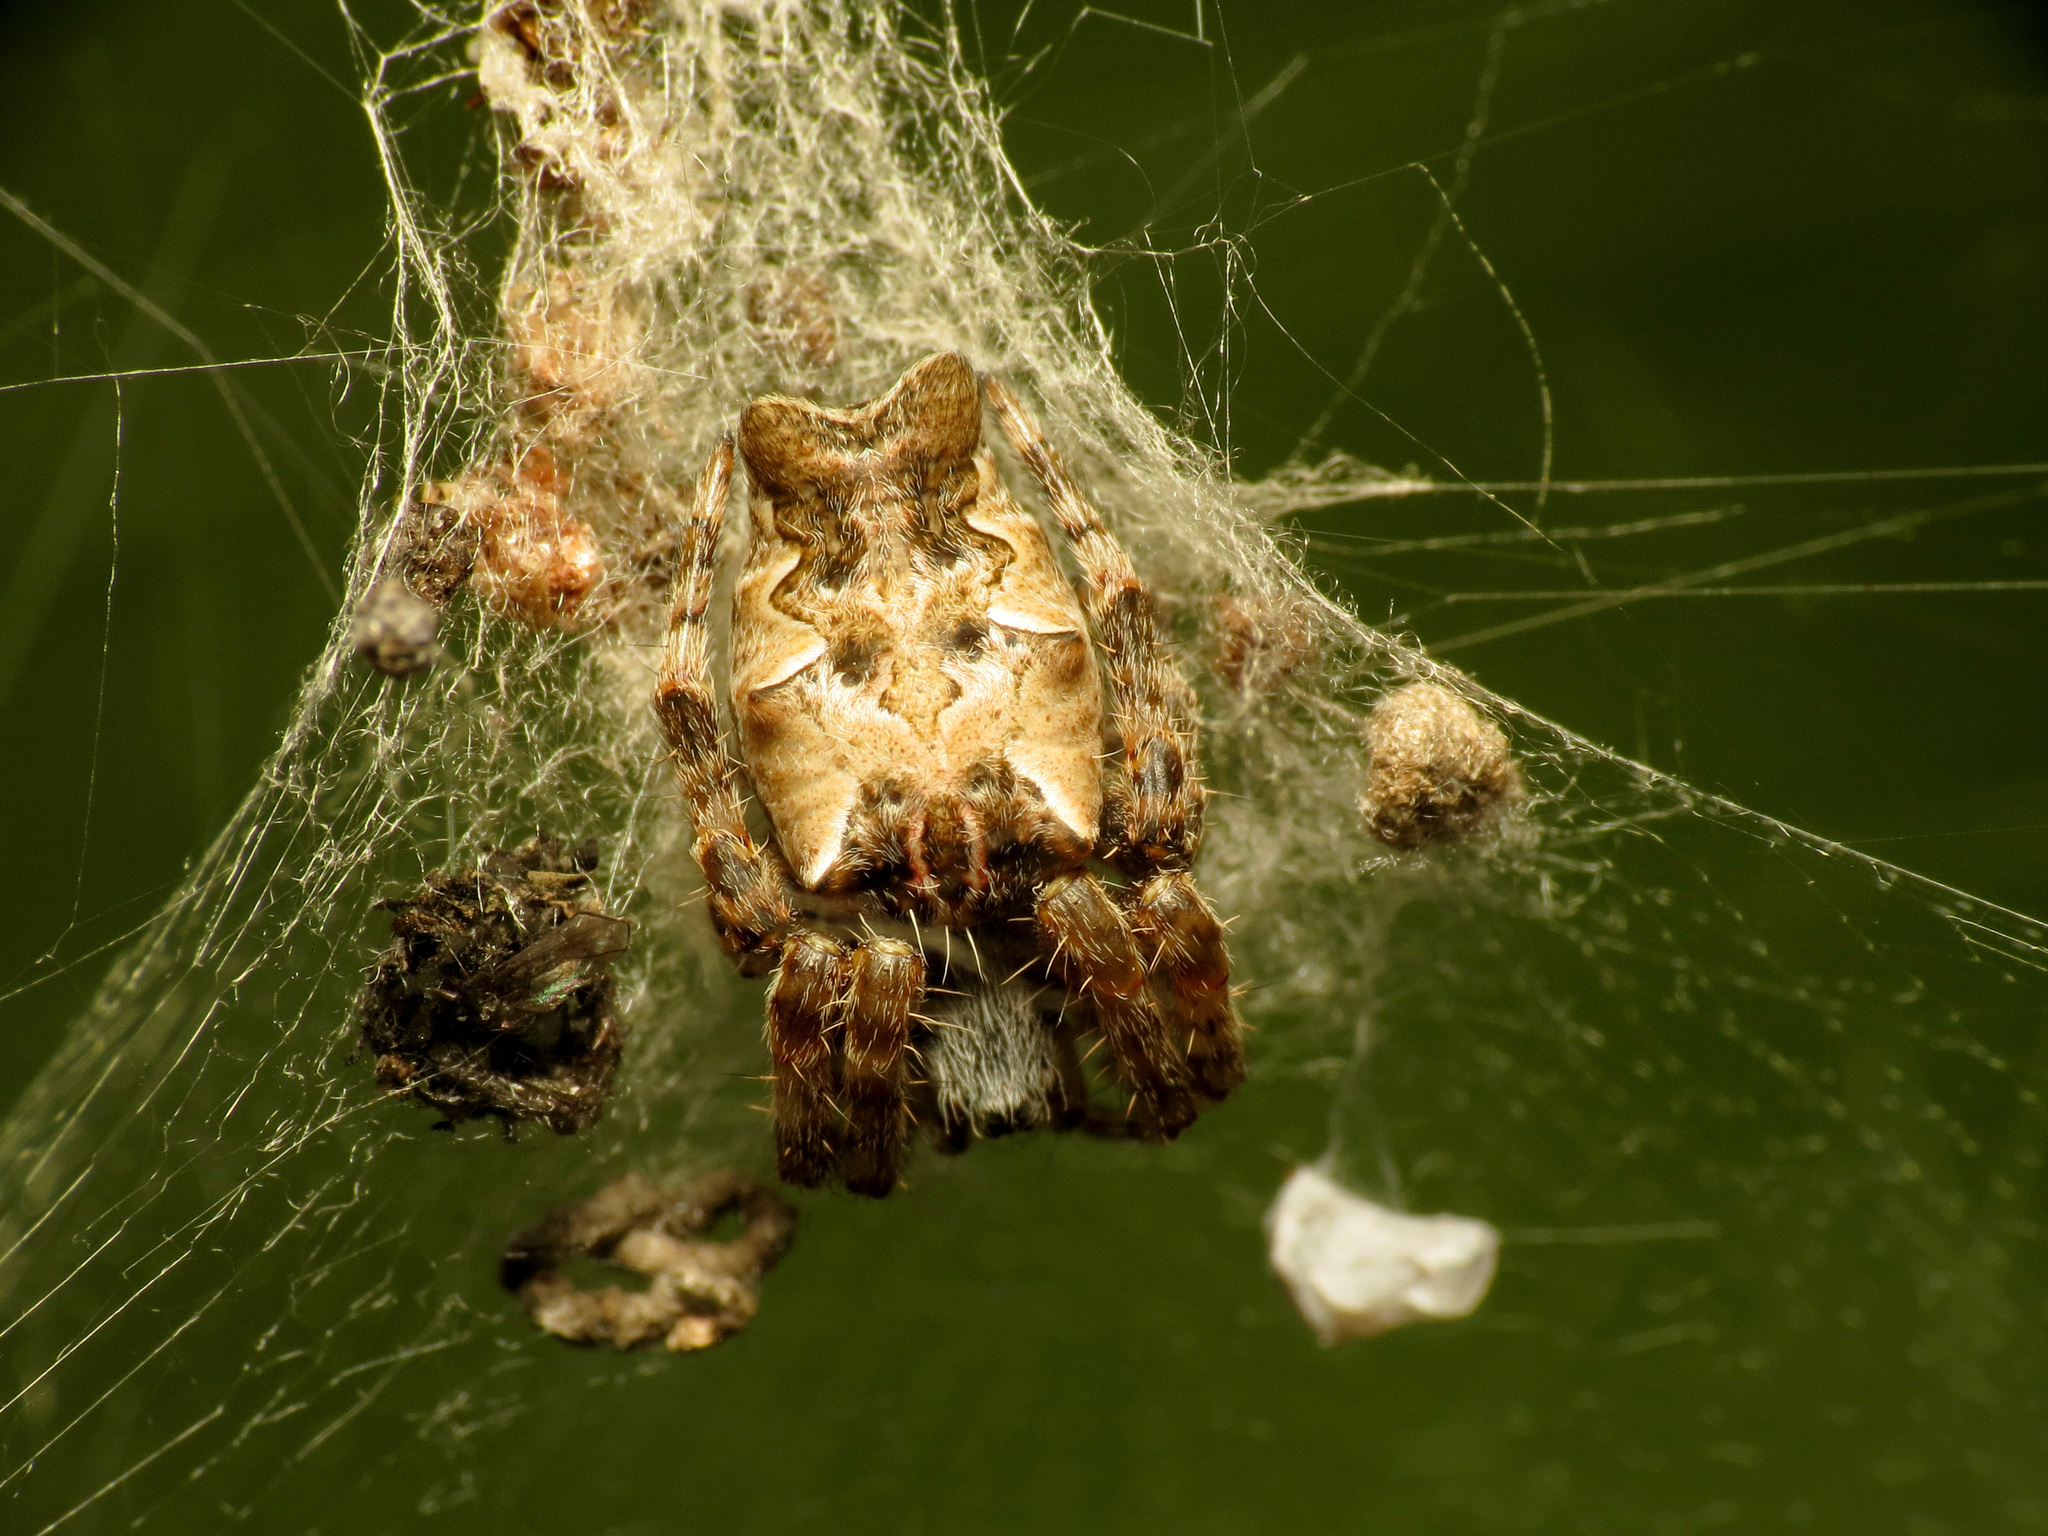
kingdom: Animalia
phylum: Arthropoda
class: Arachnida
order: Araneae
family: Araneidae
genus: Cyrtophora
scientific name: Cyrtophora citricola
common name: Orb weavers
